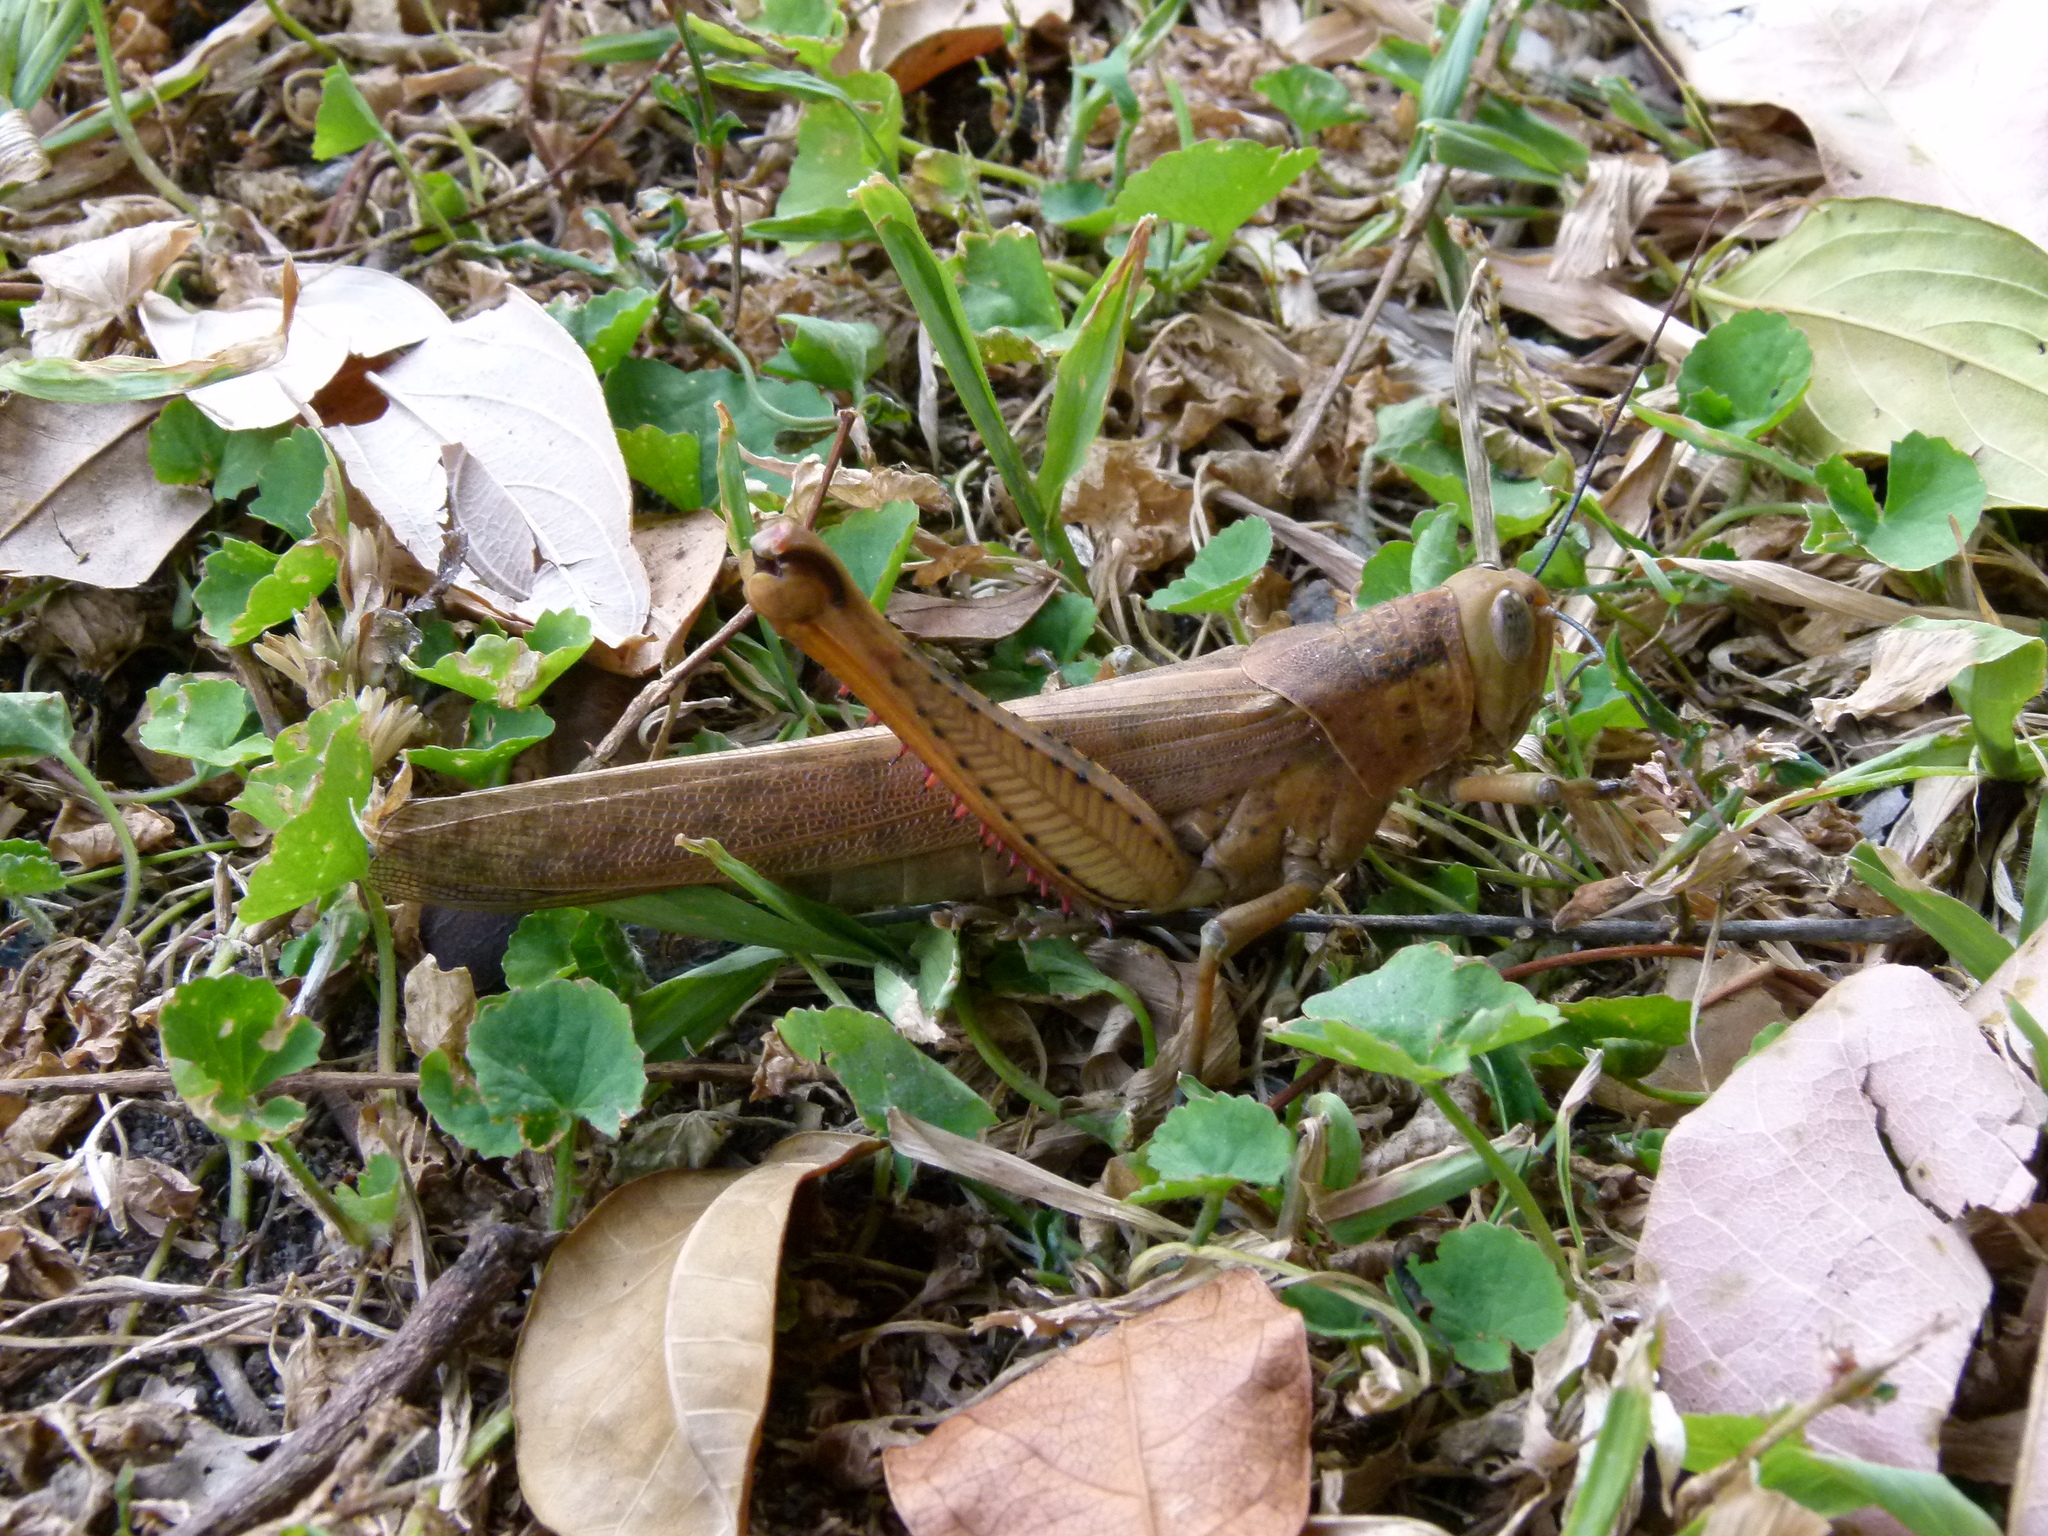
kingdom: Animalia
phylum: Arthropoda
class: Insecta
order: Orthoptera
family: Acrididae
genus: Valanga
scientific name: Valanga irregularis
